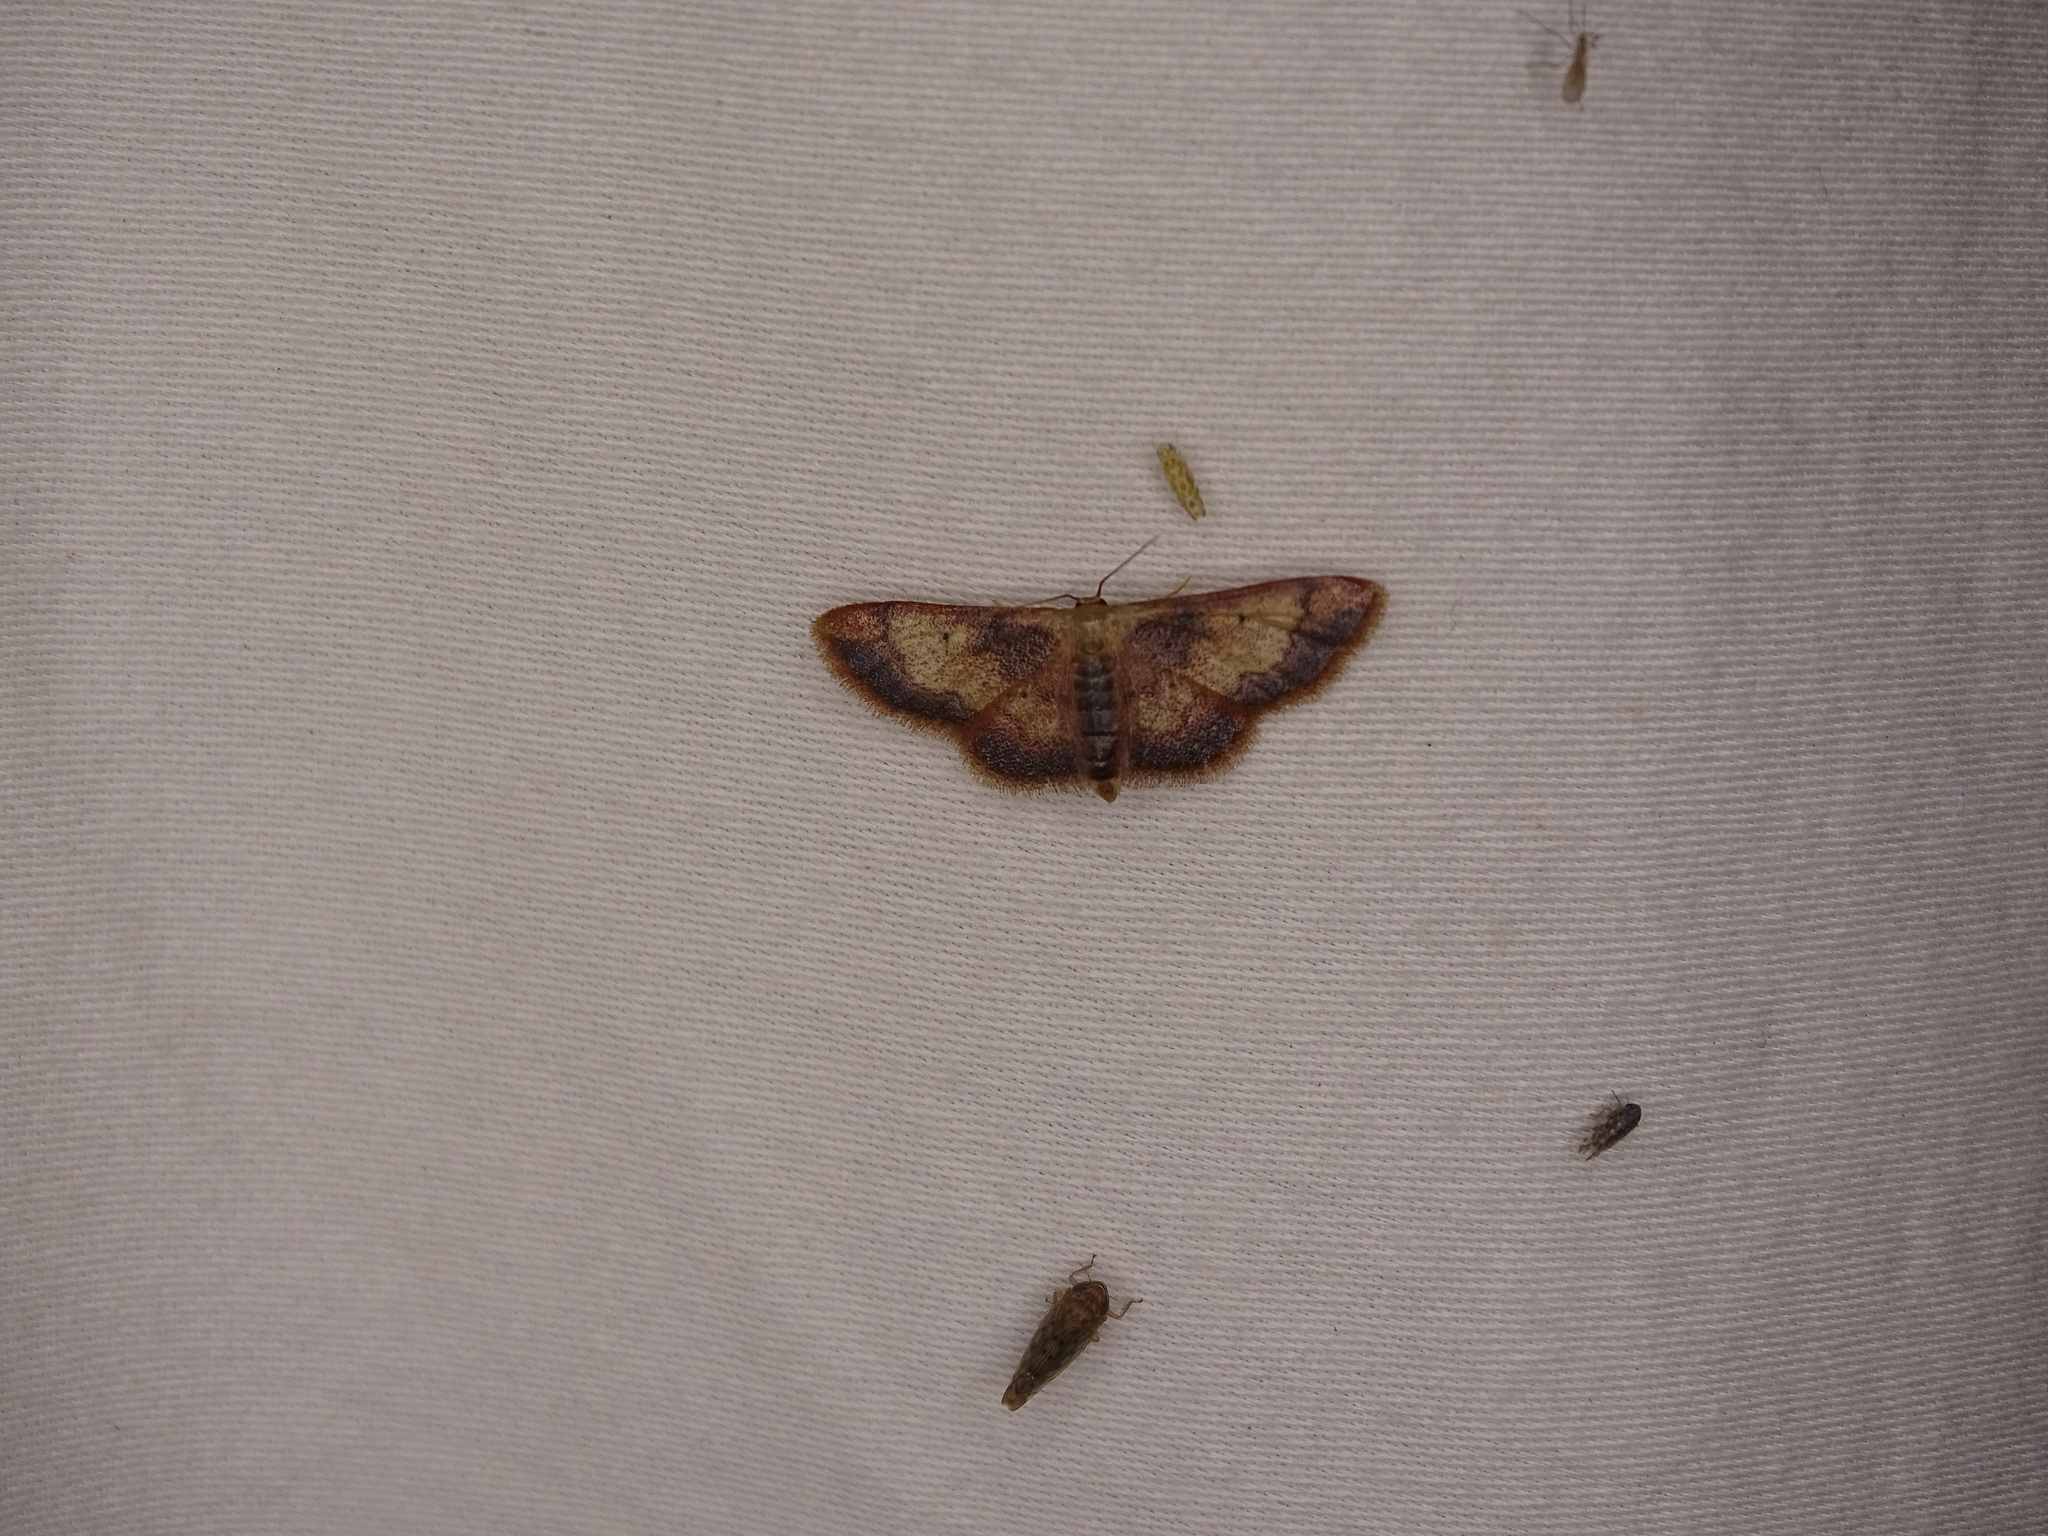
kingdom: Animalia
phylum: Arthropoda
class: Insecta
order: Lepidoptera
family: Geometridae
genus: Idaea
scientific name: Idaea demissaria
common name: Red-bordered wave
